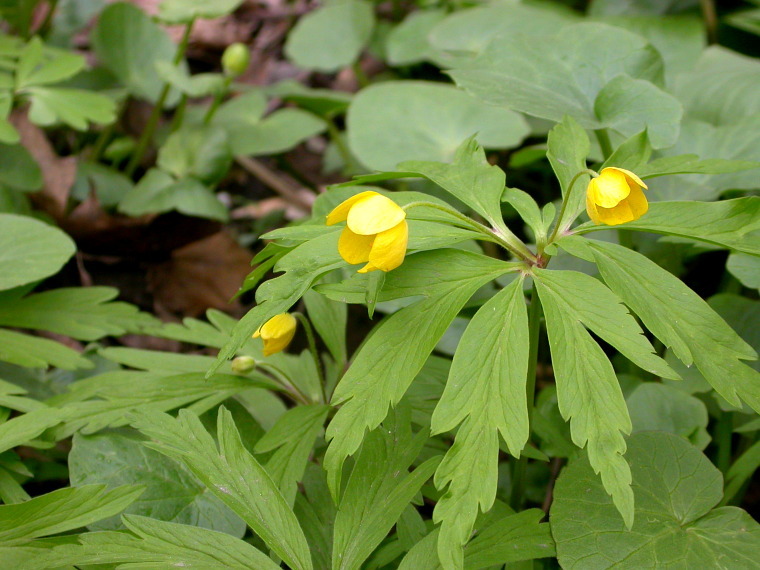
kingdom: Plantae
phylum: Tracheophyta
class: Magnoliopsida
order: Ranunculales
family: Ranunculaceae
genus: Anemone
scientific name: Anemone ranunculoides
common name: Yellow anemone
